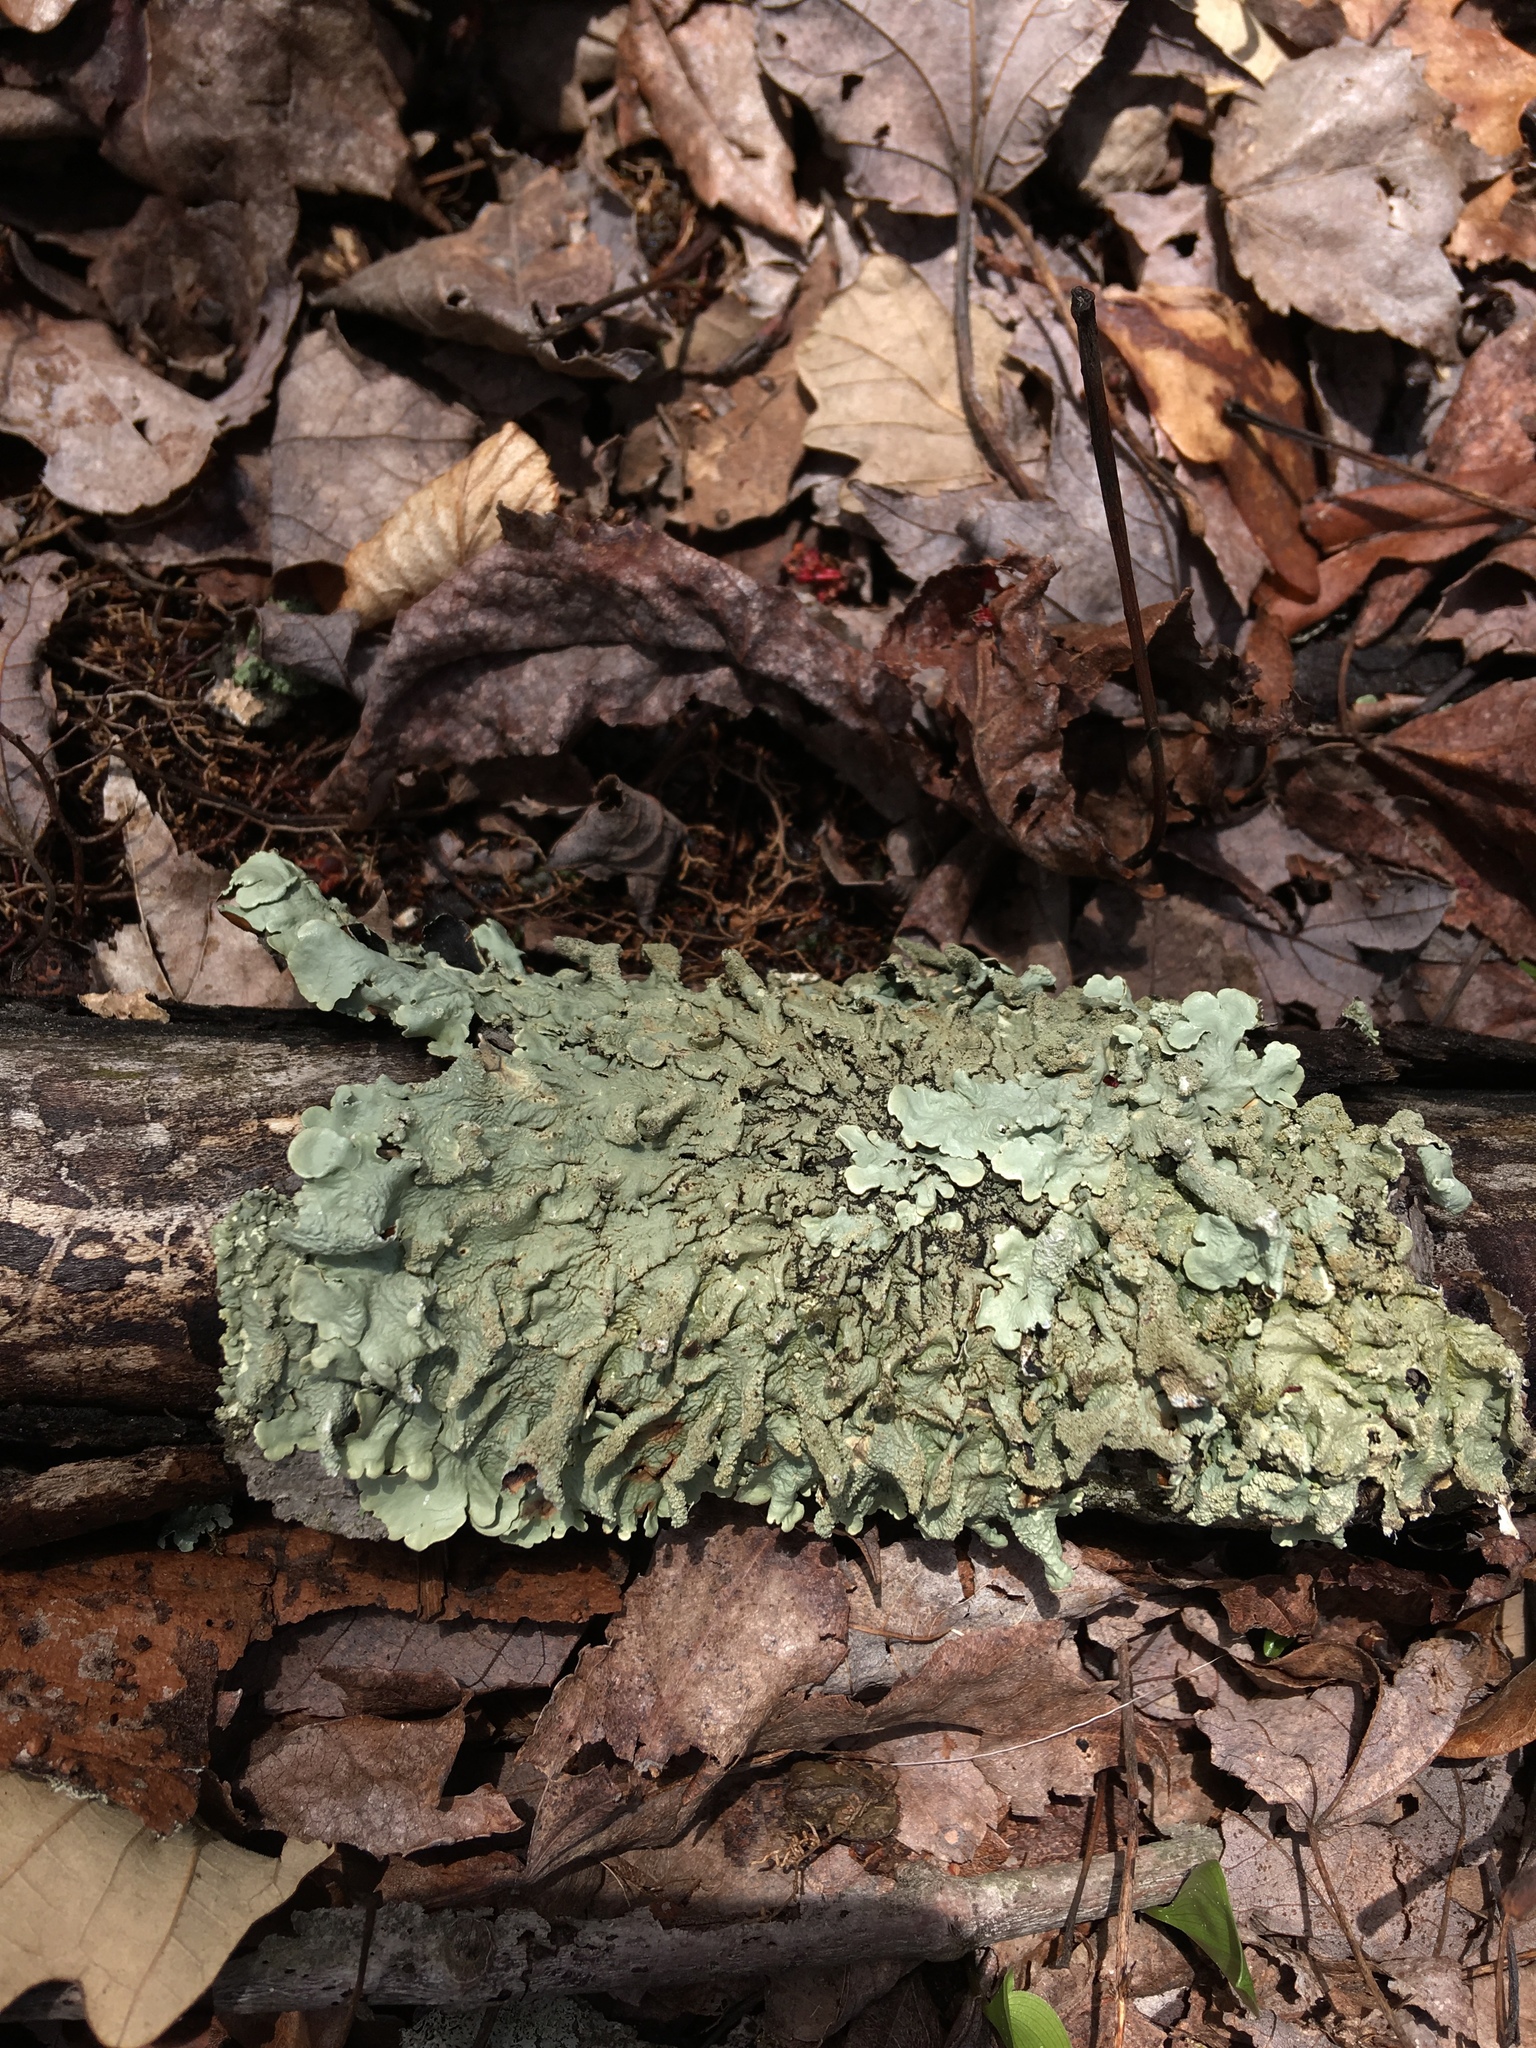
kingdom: Fungi
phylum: Ascomycota
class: Lecanoromycetes
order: Lecanorales
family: Parmeliaceae
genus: Flavoparmelia
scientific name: Flavoparmelia caperata
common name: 40-mile per hour lichen
